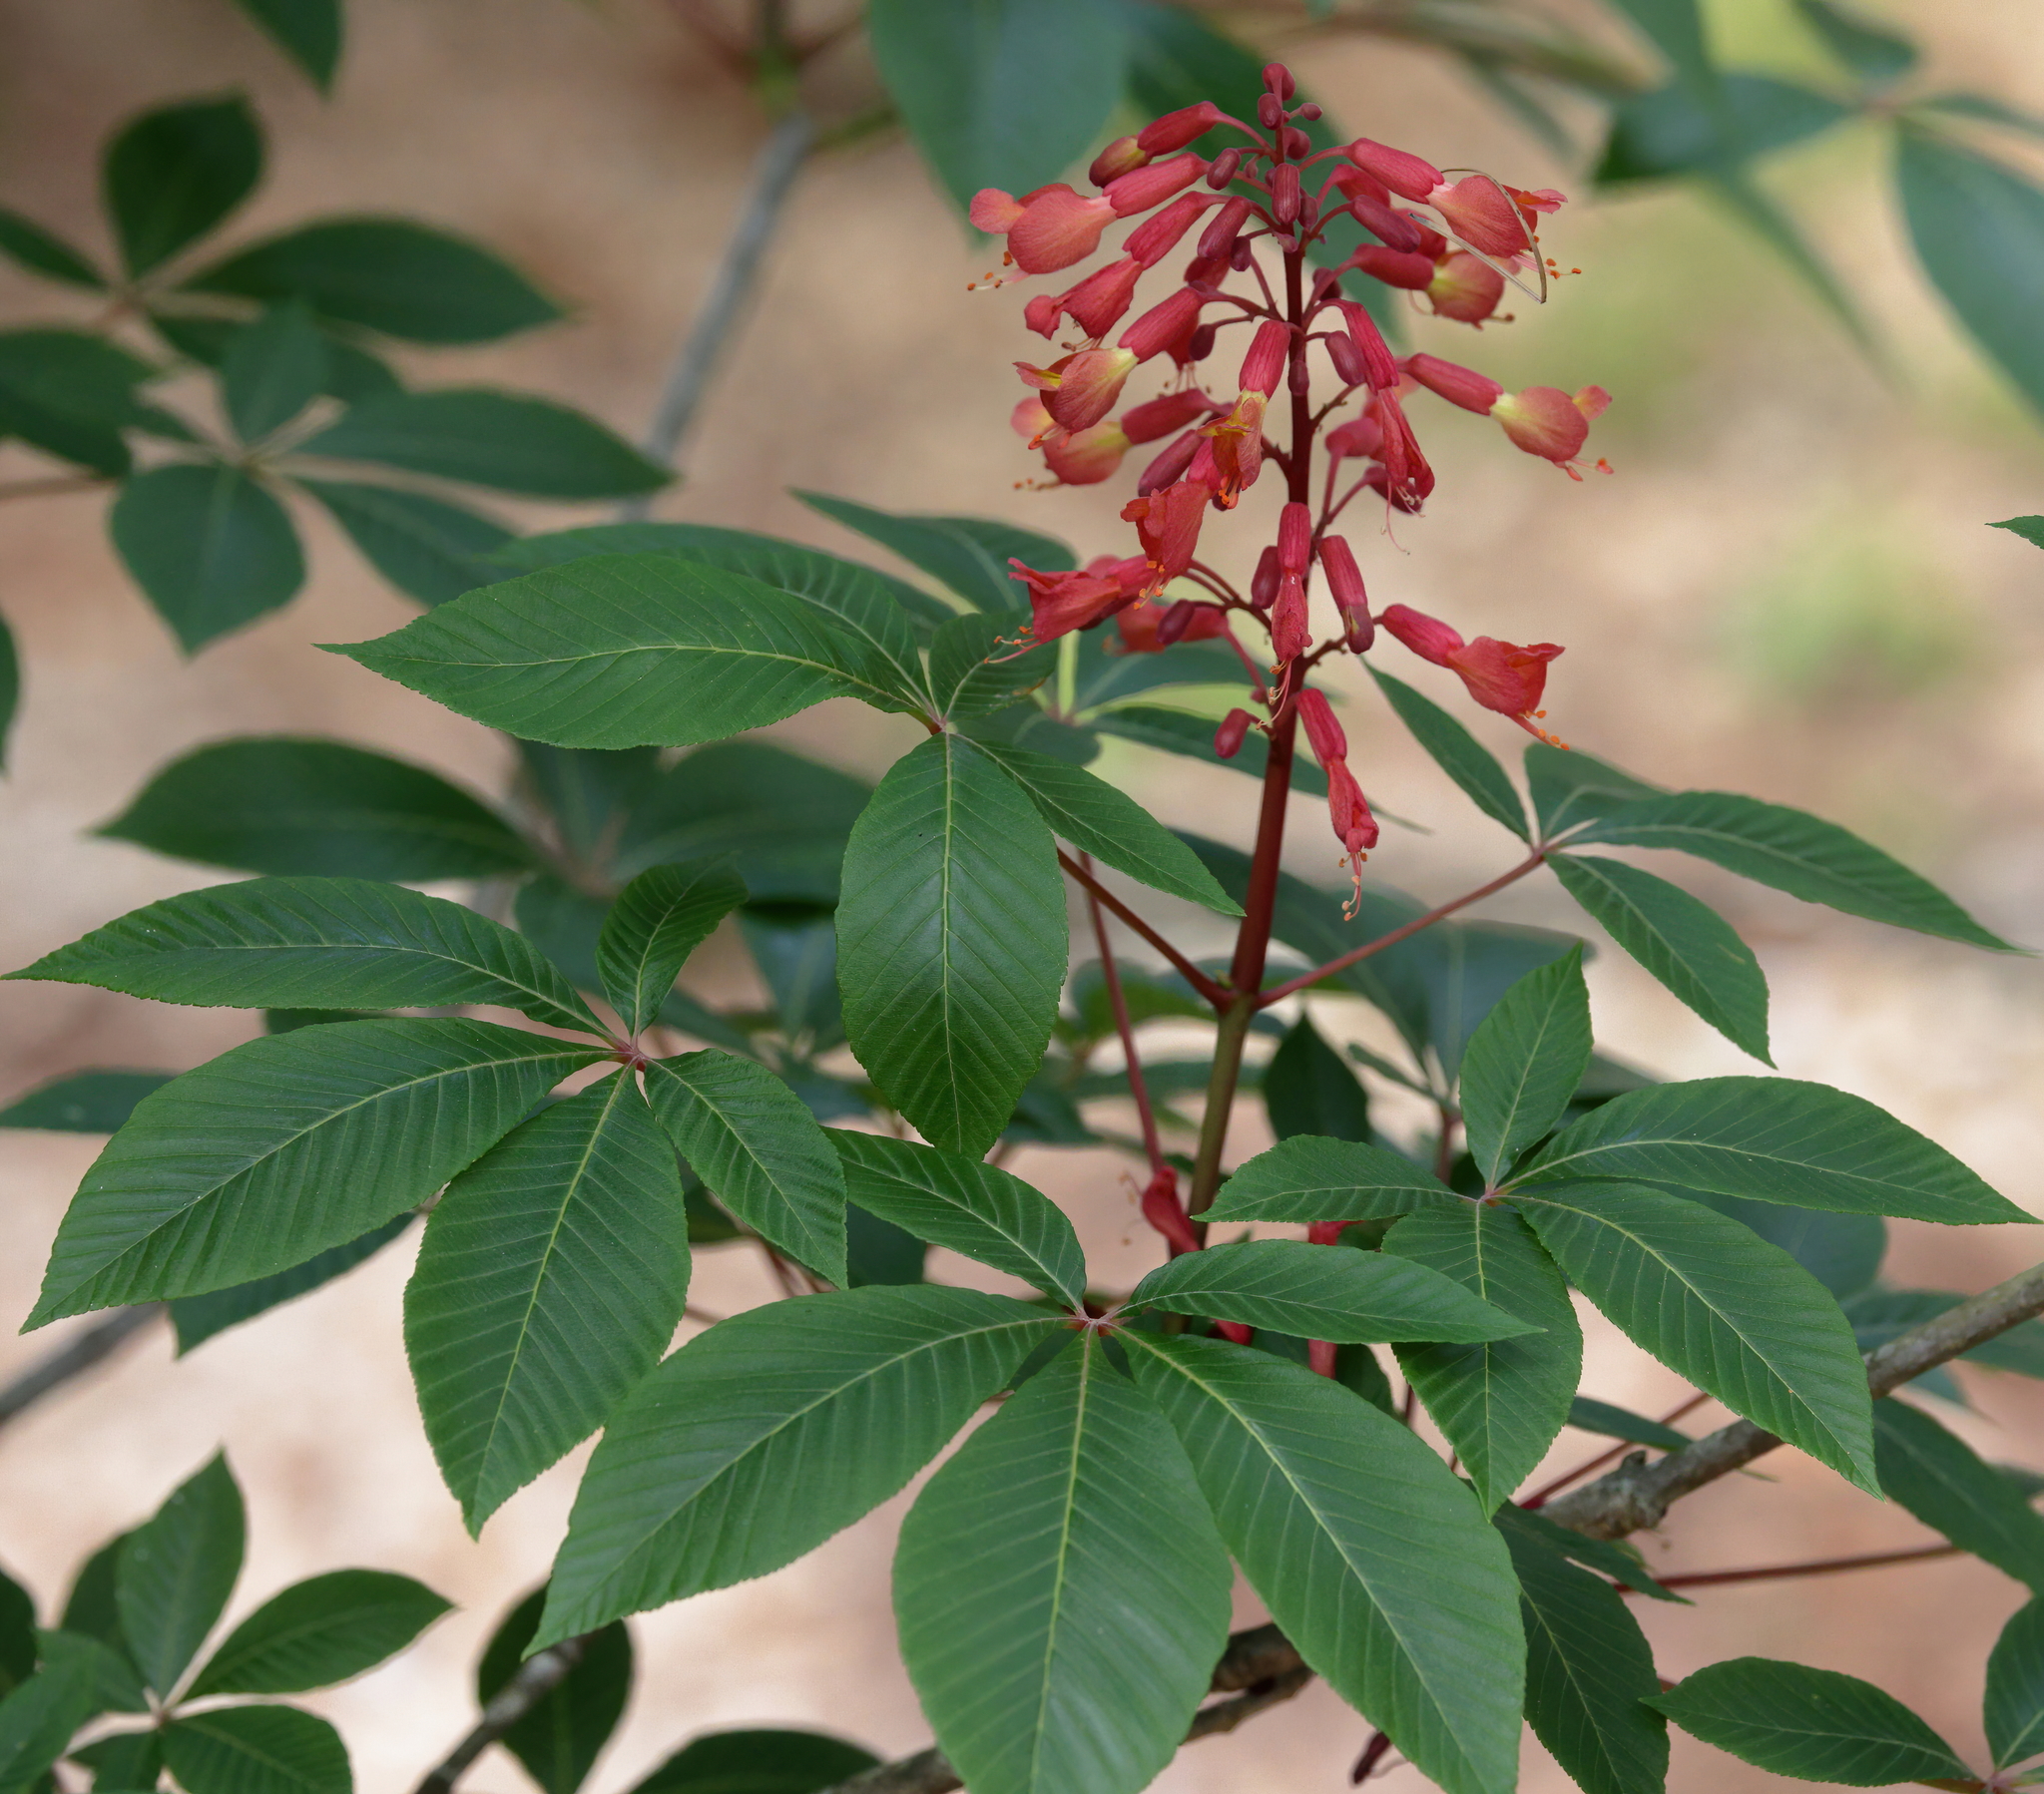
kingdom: Plantae
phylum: Tracheophyta
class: Magnoliopsida
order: Sapindales
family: Sapindaceae
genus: Aesculus
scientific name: Aesculus pavia
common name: Red buckeye
